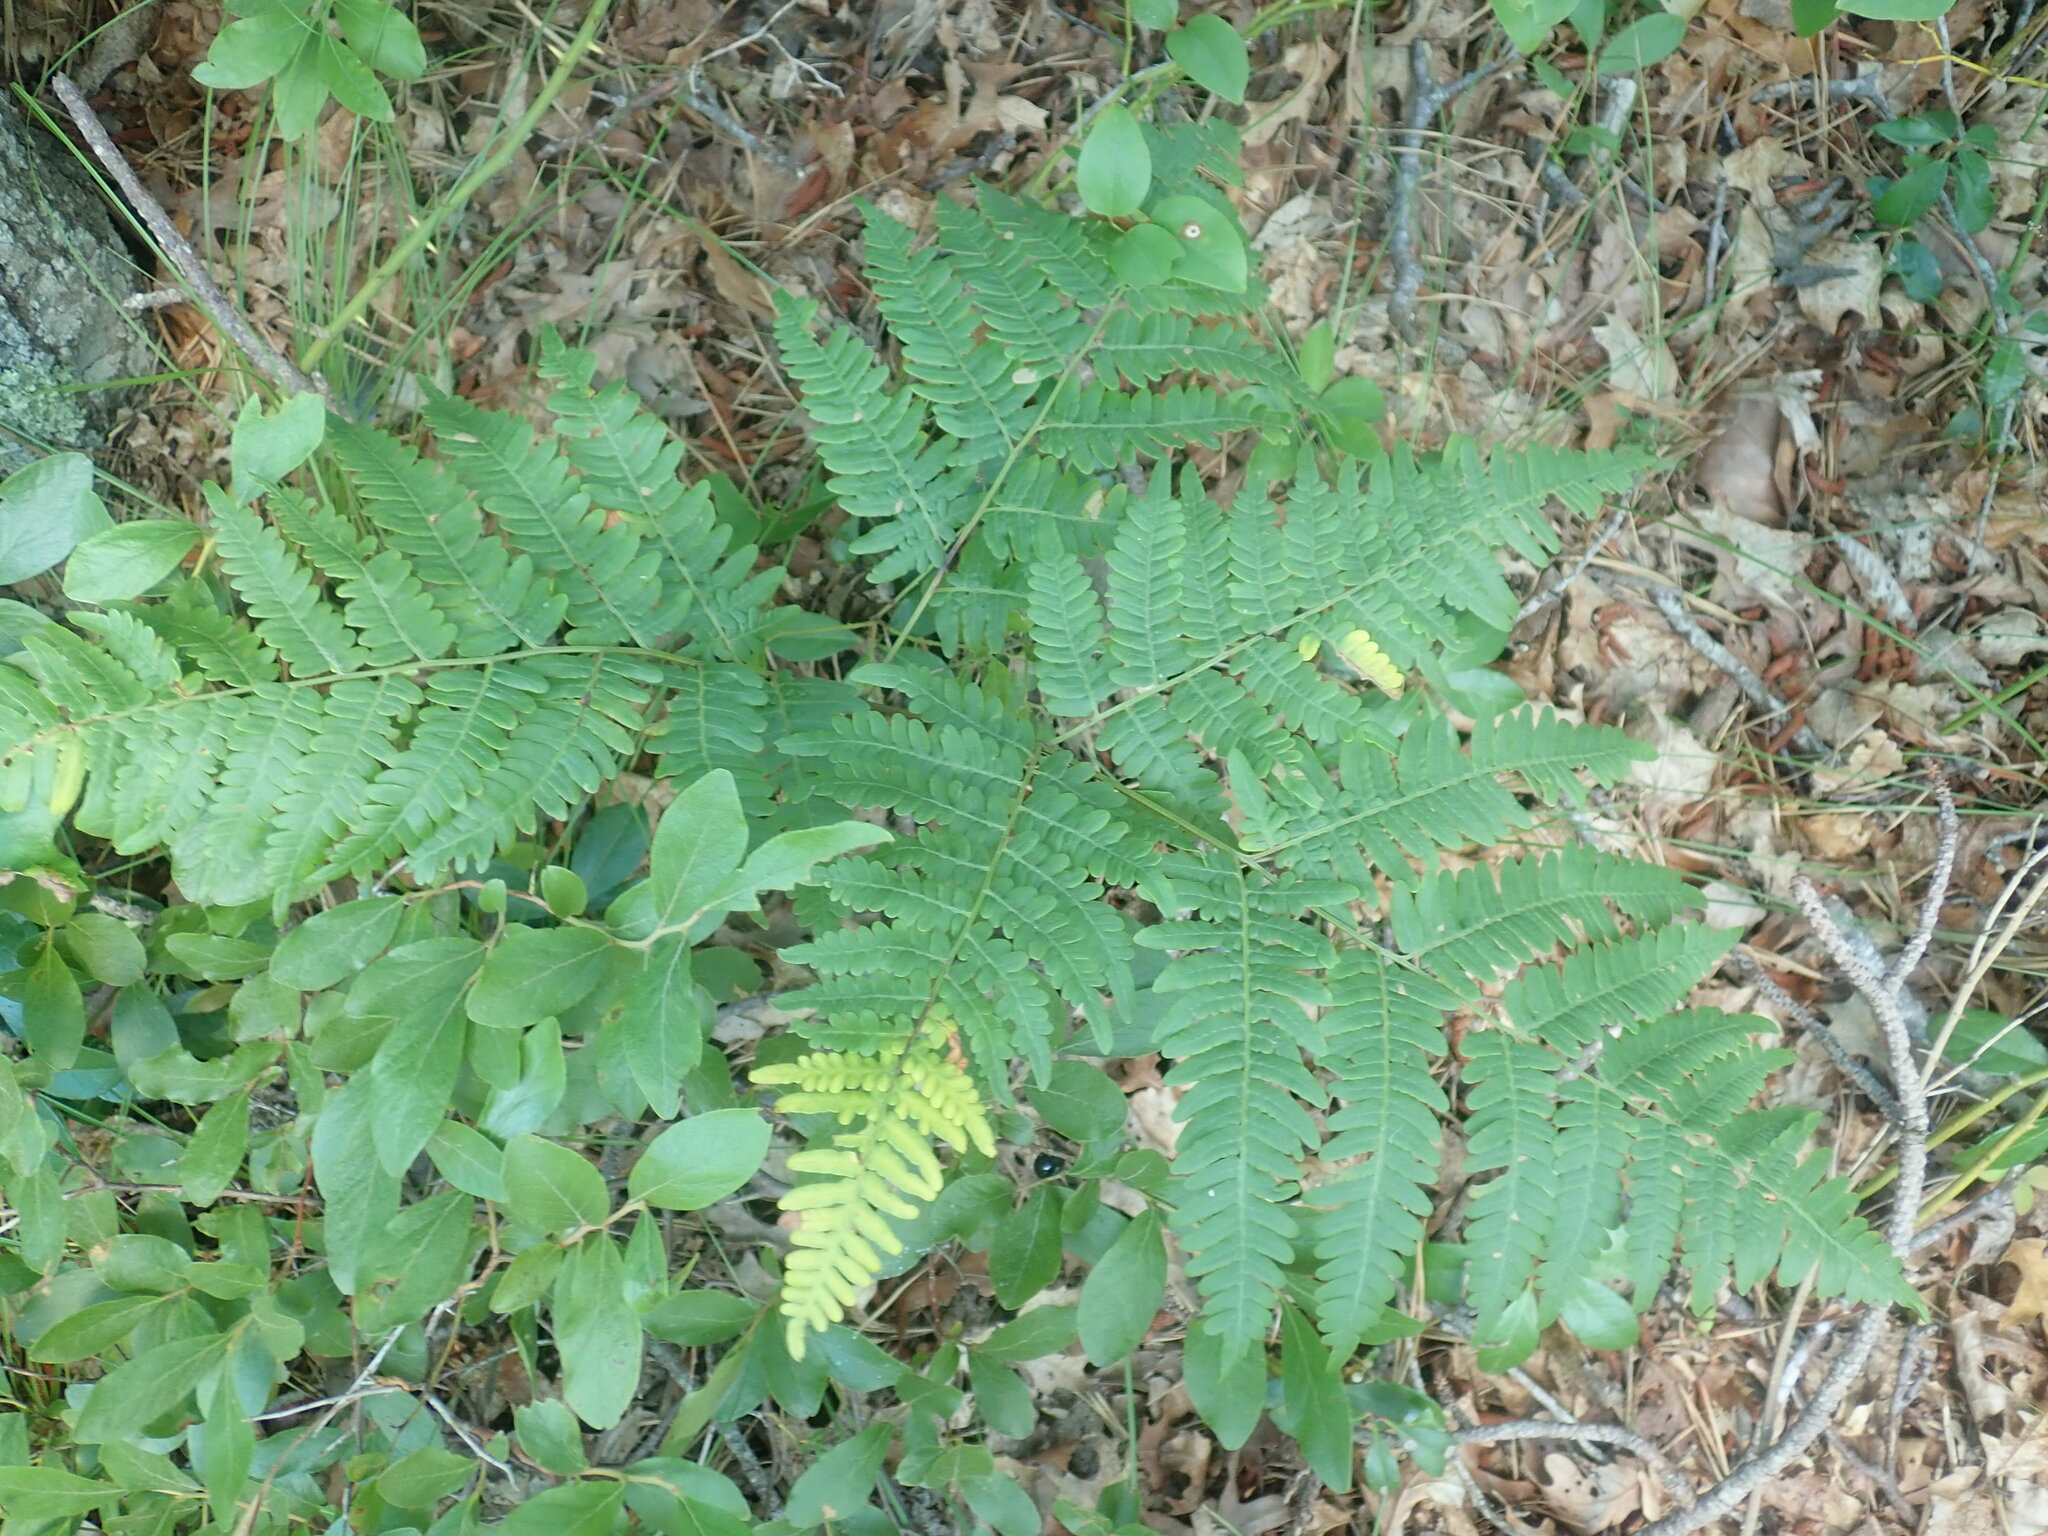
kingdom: Plantae
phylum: Tracheophyta
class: Polypodiopsida
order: Polypodiales
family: Dennstaedtiaceae
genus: Pteridium
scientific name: Pteridium aquilinum
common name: Bracken
